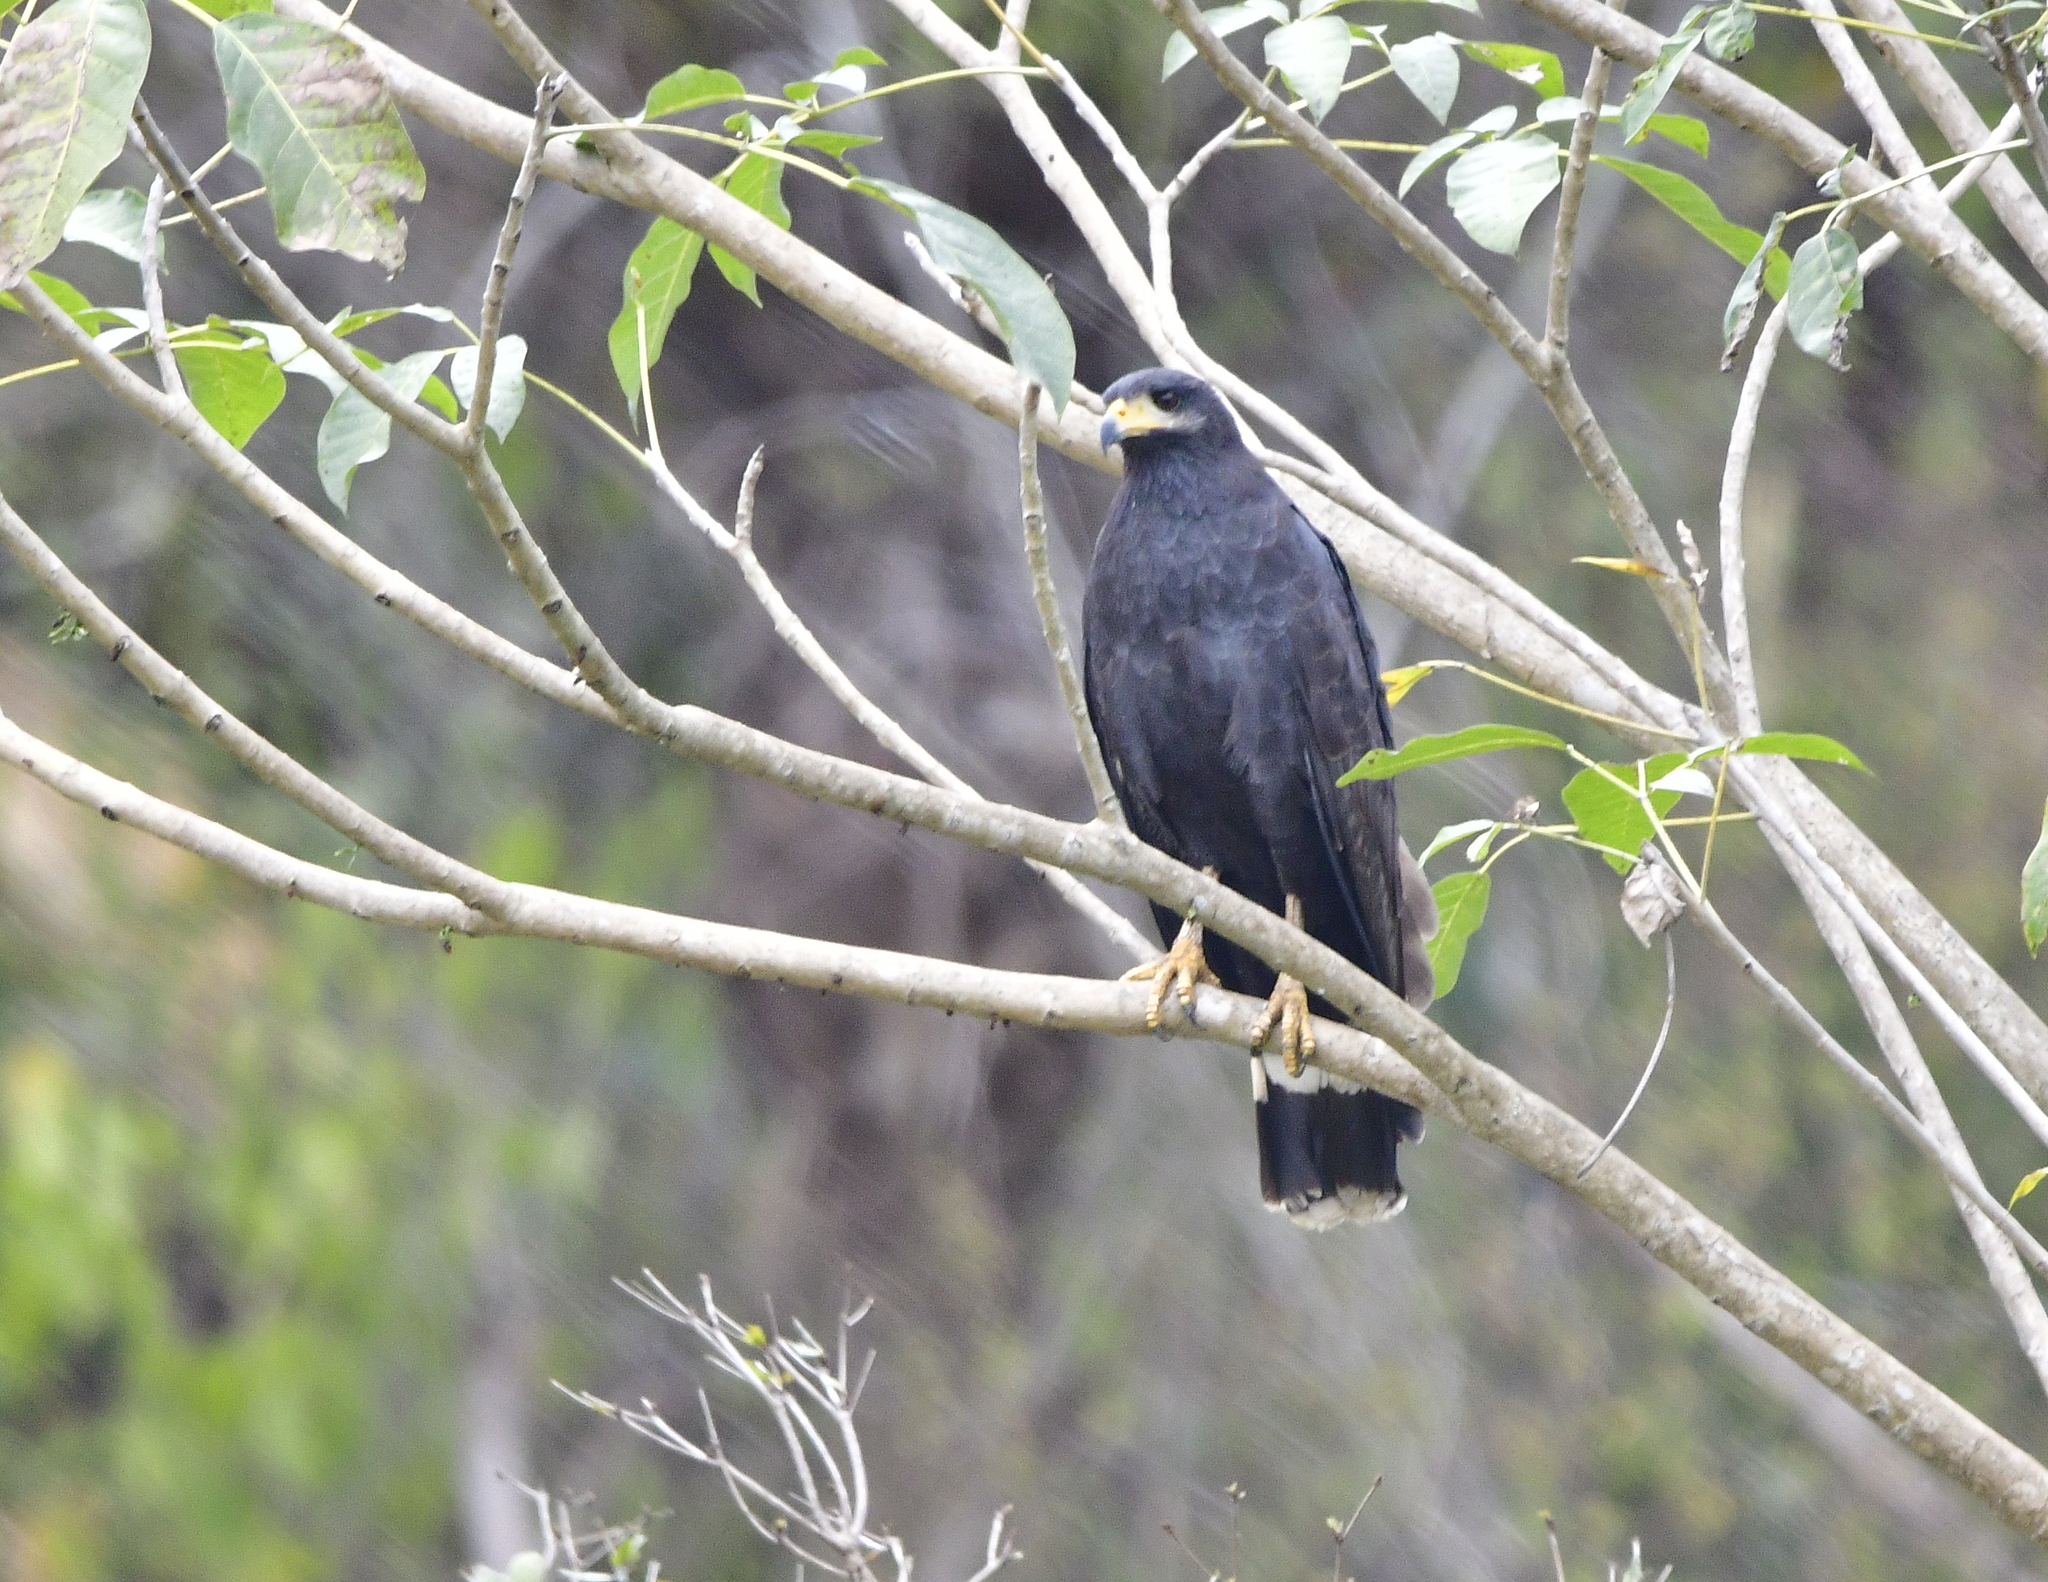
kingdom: Animalia
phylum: Chordata
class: Aves
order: Accipitriformes
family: Accipitridae
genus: Buteogallus
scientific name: Buteogallus anthracinus
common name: Common black hawk
